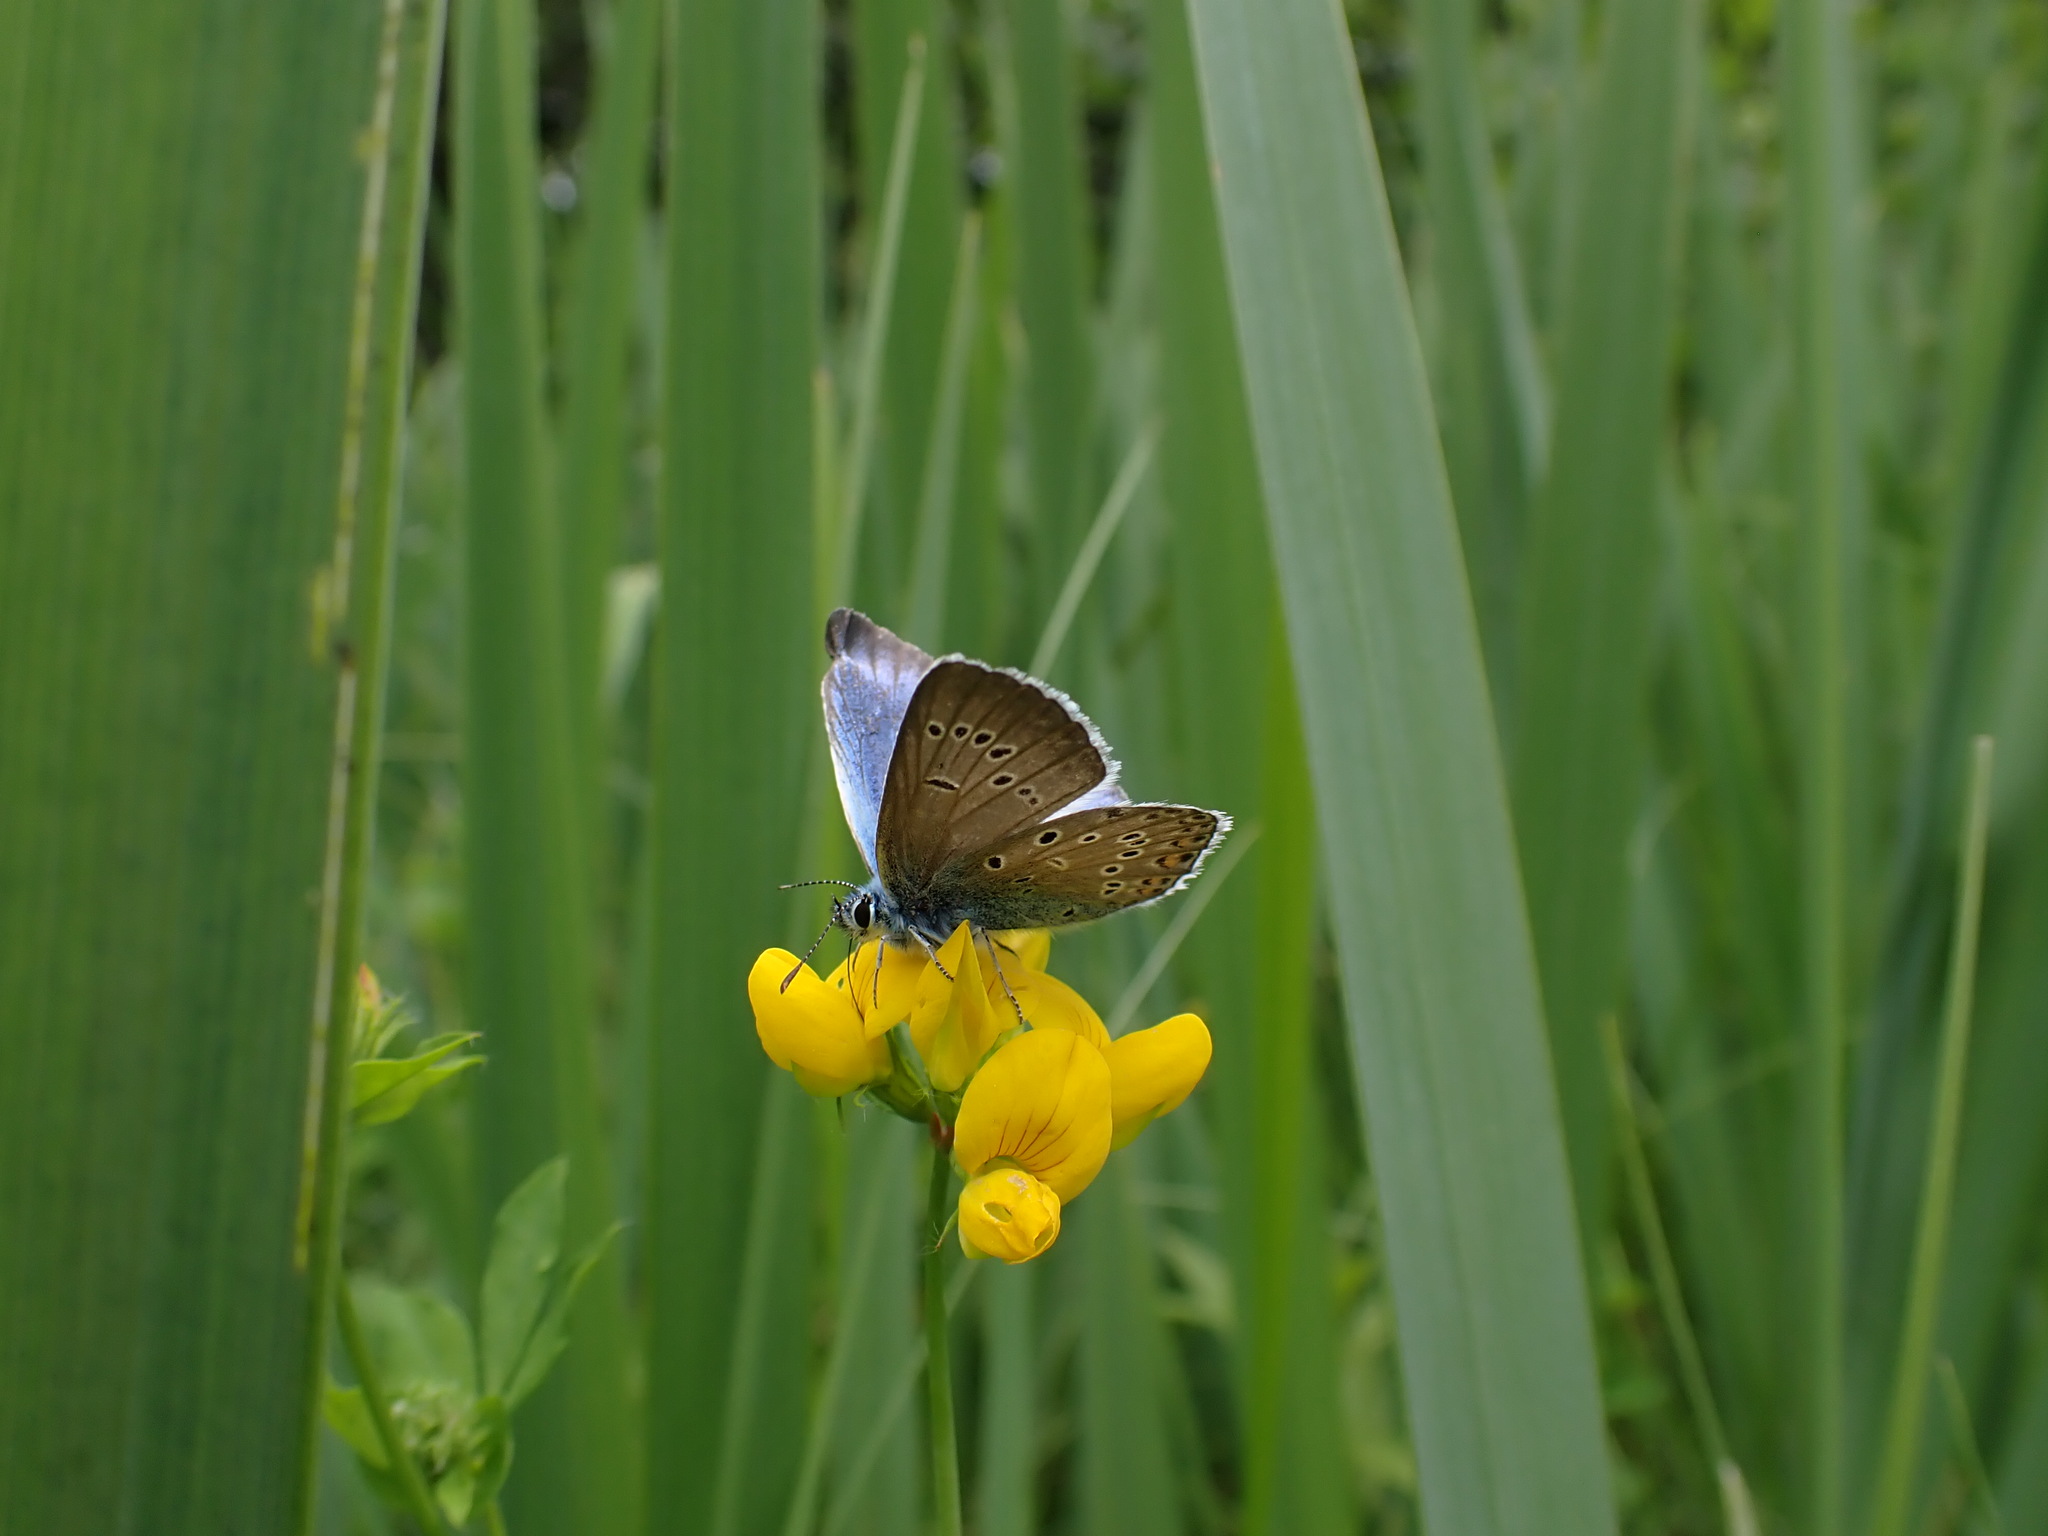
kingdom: Animalia
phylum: Arthropoda
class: Insecta
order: Lepidoptera
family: Lycaenidae
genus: Plebejus
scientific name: Plebejus amanda
